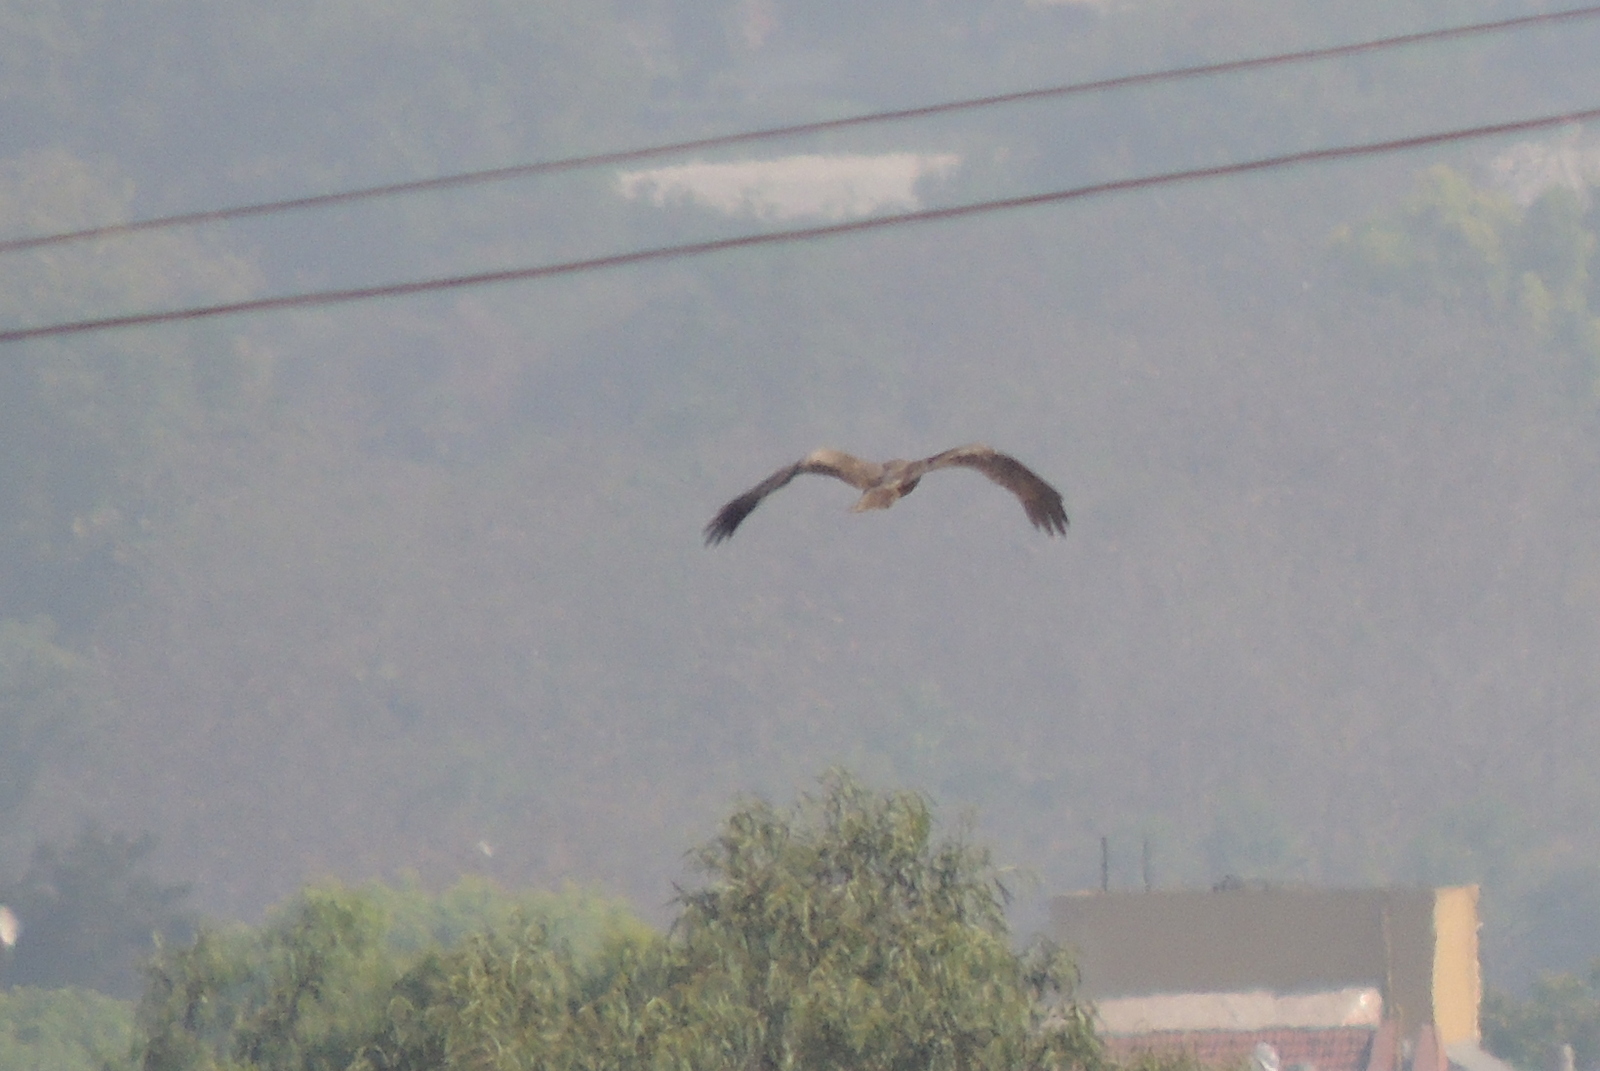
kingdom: Animalia
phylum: Chordata
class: Aves
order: Accipitriformes
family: Accipitridae
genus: Milvus
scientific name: Milvus migrans
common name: Black kite
